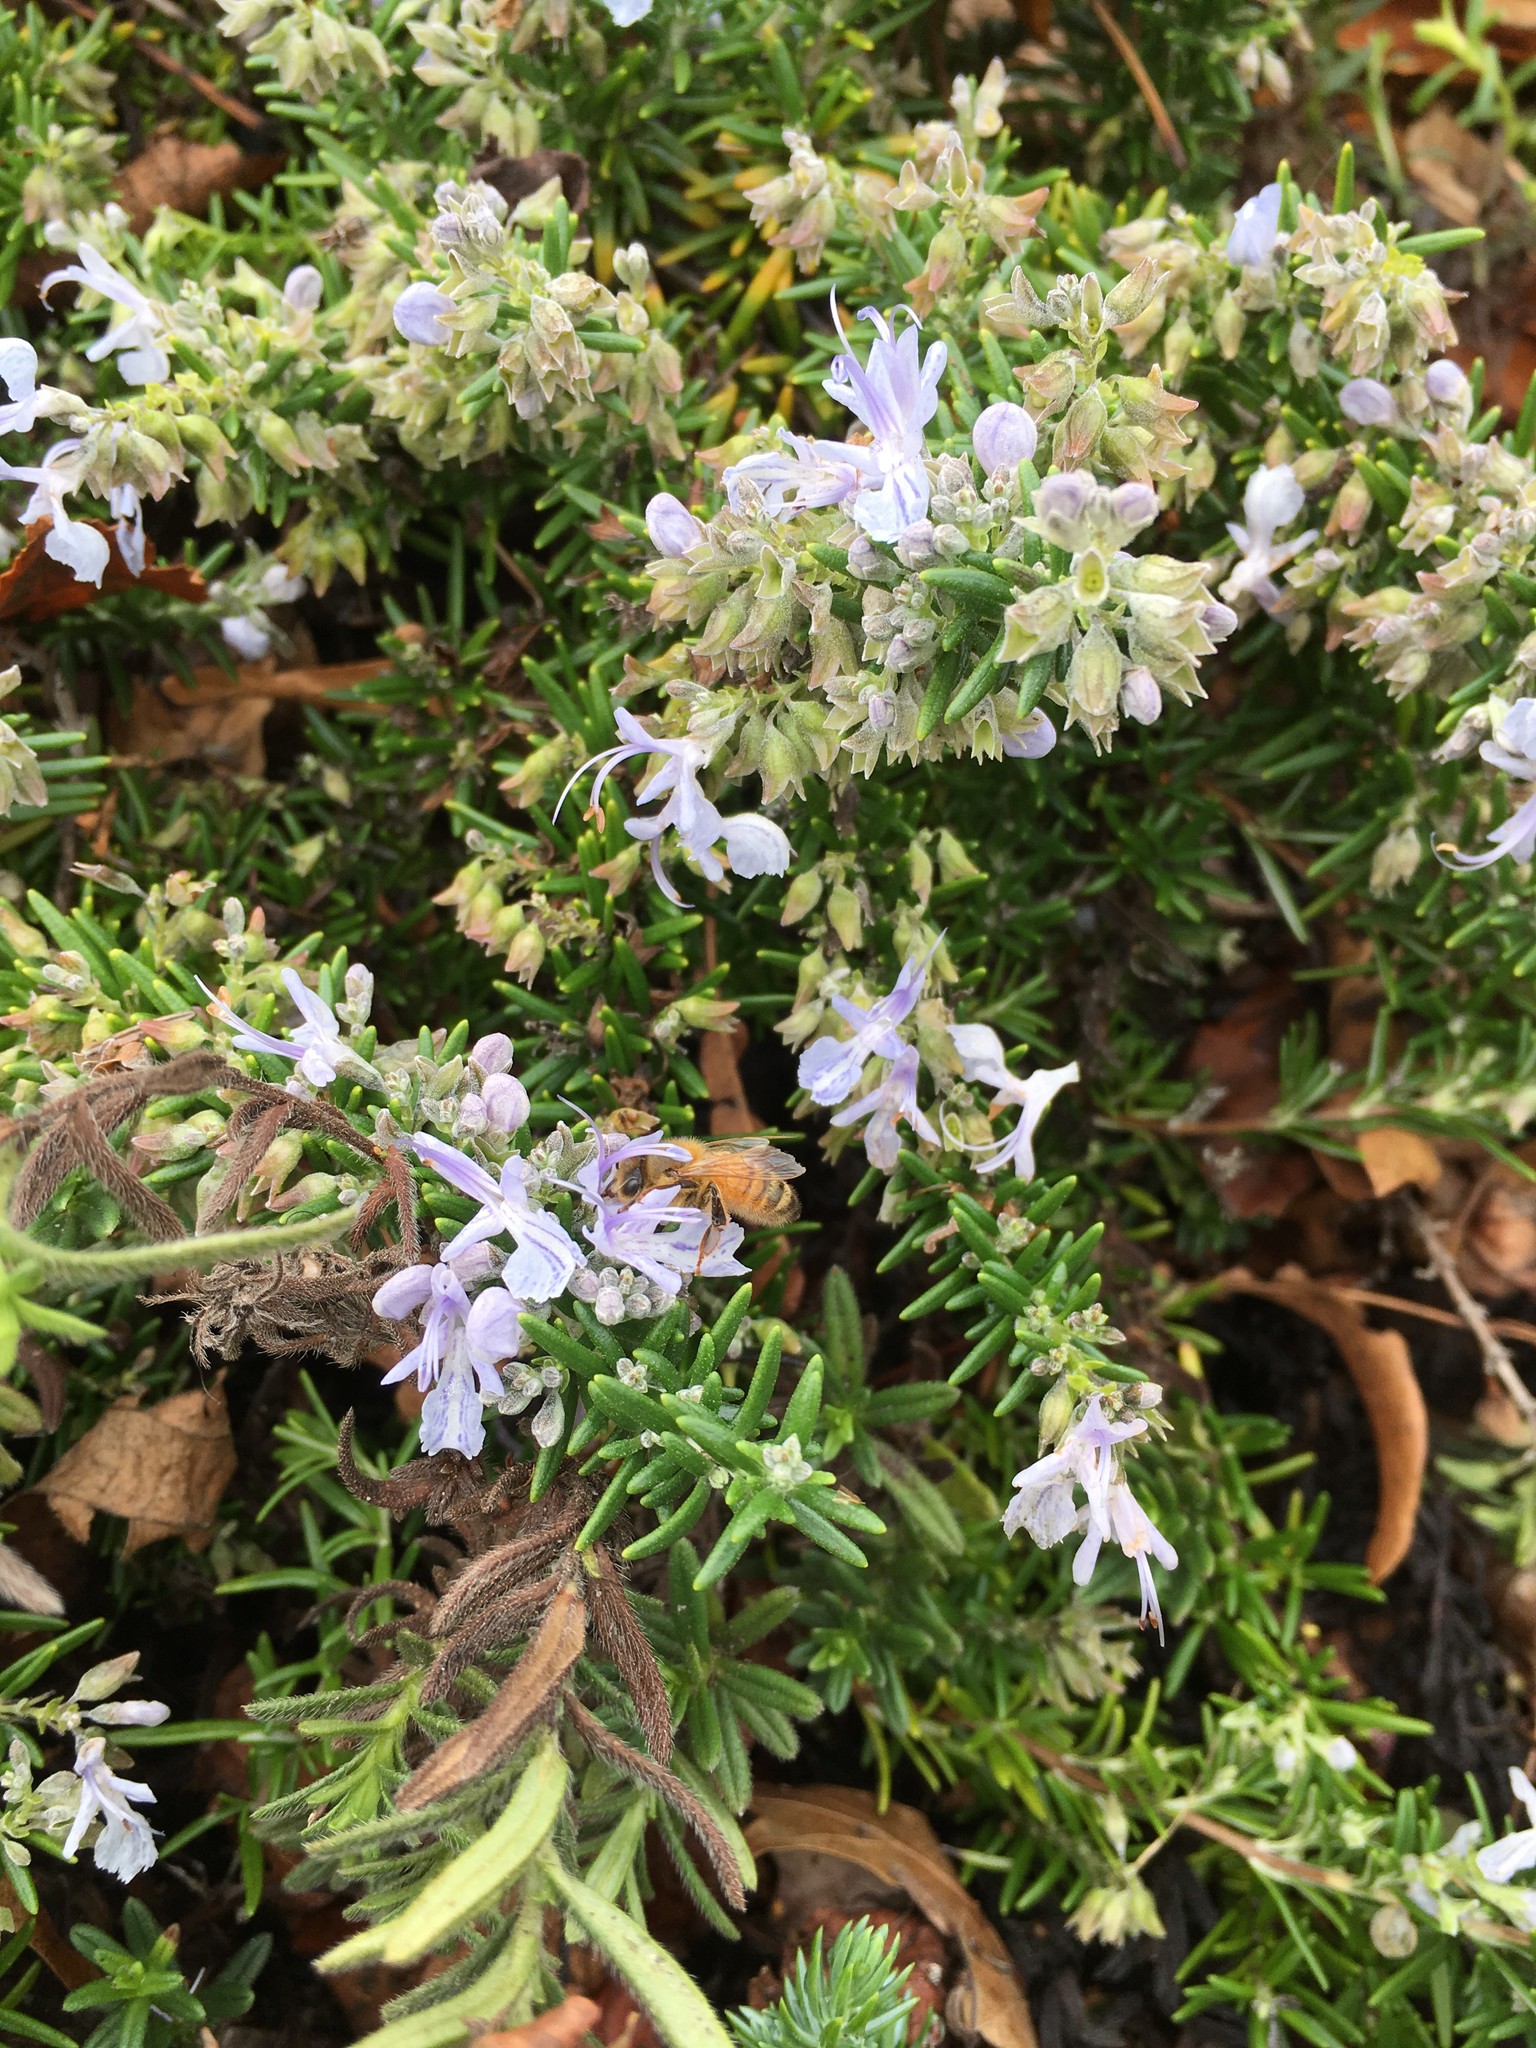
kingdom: Animalia
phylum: Arthropoda
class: Insecta
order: Hymenoptera
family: Apidae
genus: Apis
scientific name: Apis mellifera
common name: Honey bee
